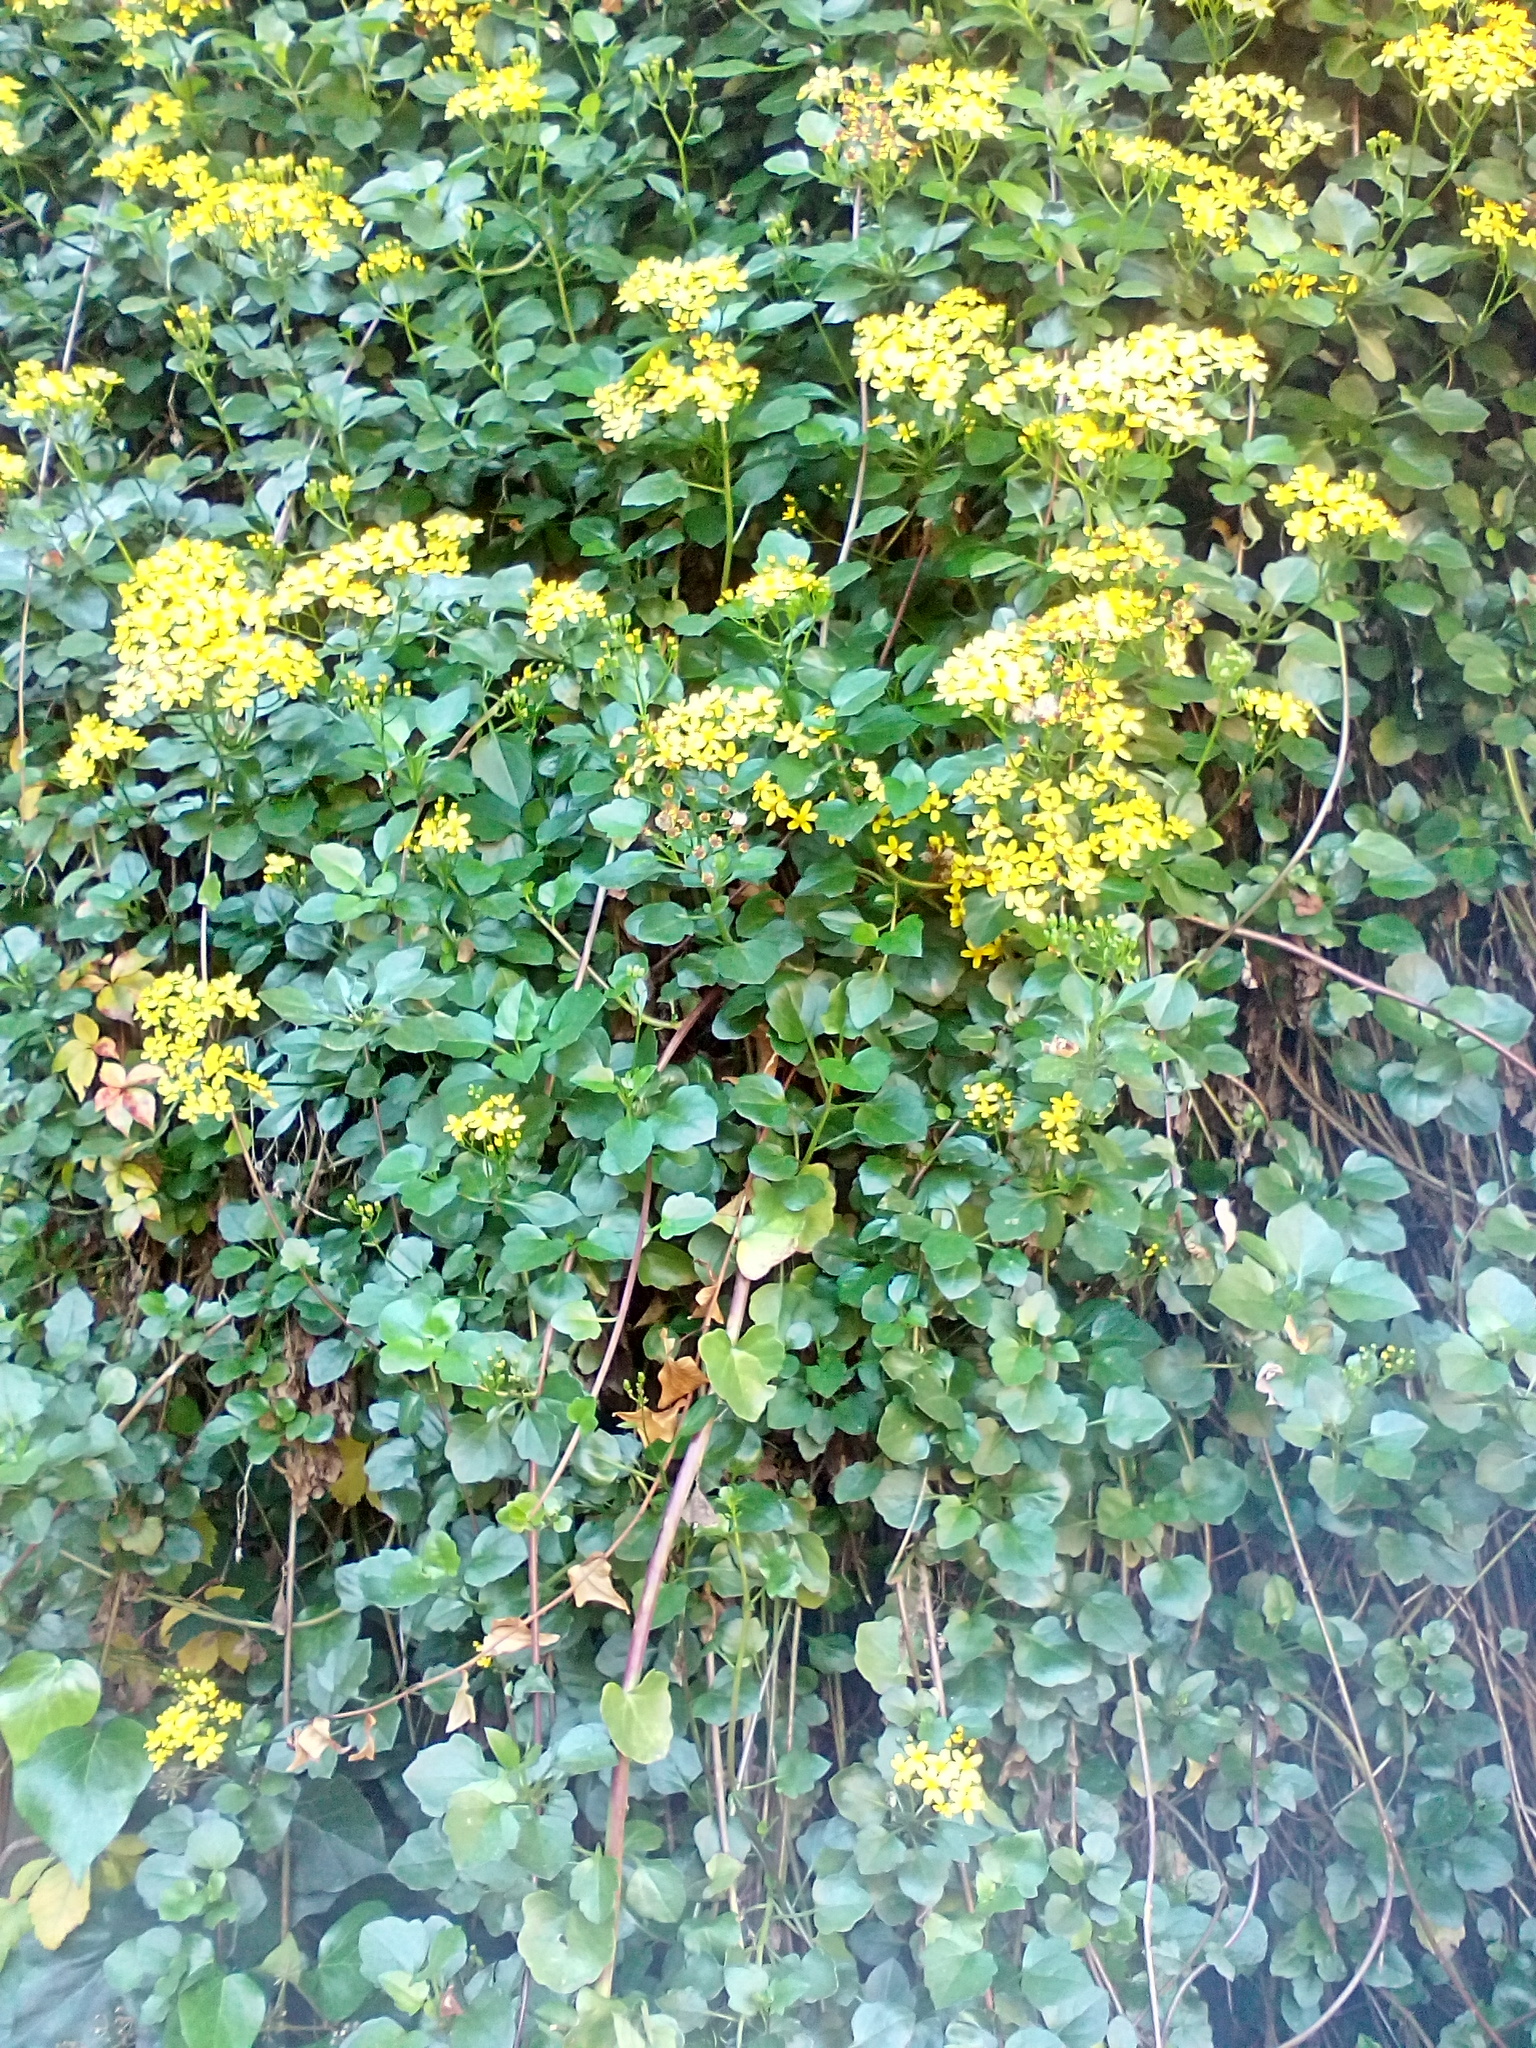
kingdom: Plantae
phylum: Tracheophyta
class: Magnoliopsida
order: Asterales
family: Asteraceae
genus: Senecio
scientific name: Senecio angulatus
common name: Climbing groundsel
